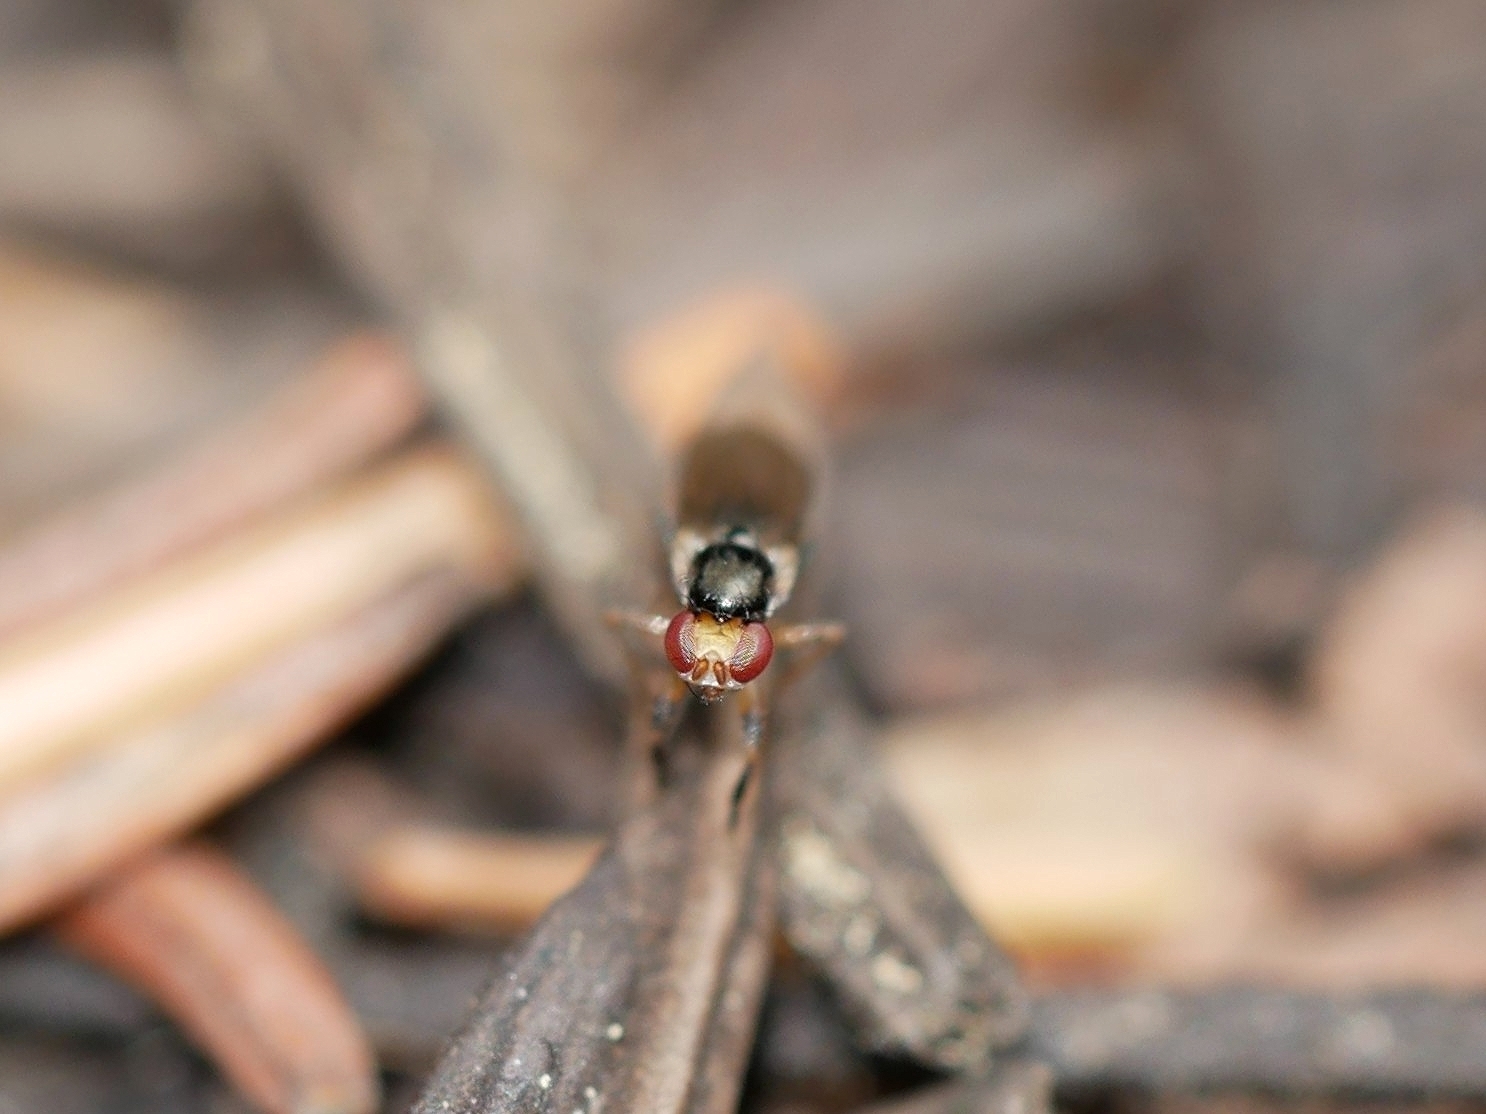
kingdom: Animalia
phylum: Arthropoda
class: Insecta
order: Diptera
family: Piophilidae
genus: Mycetaulus
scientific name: Mycetaulus nigritellus
